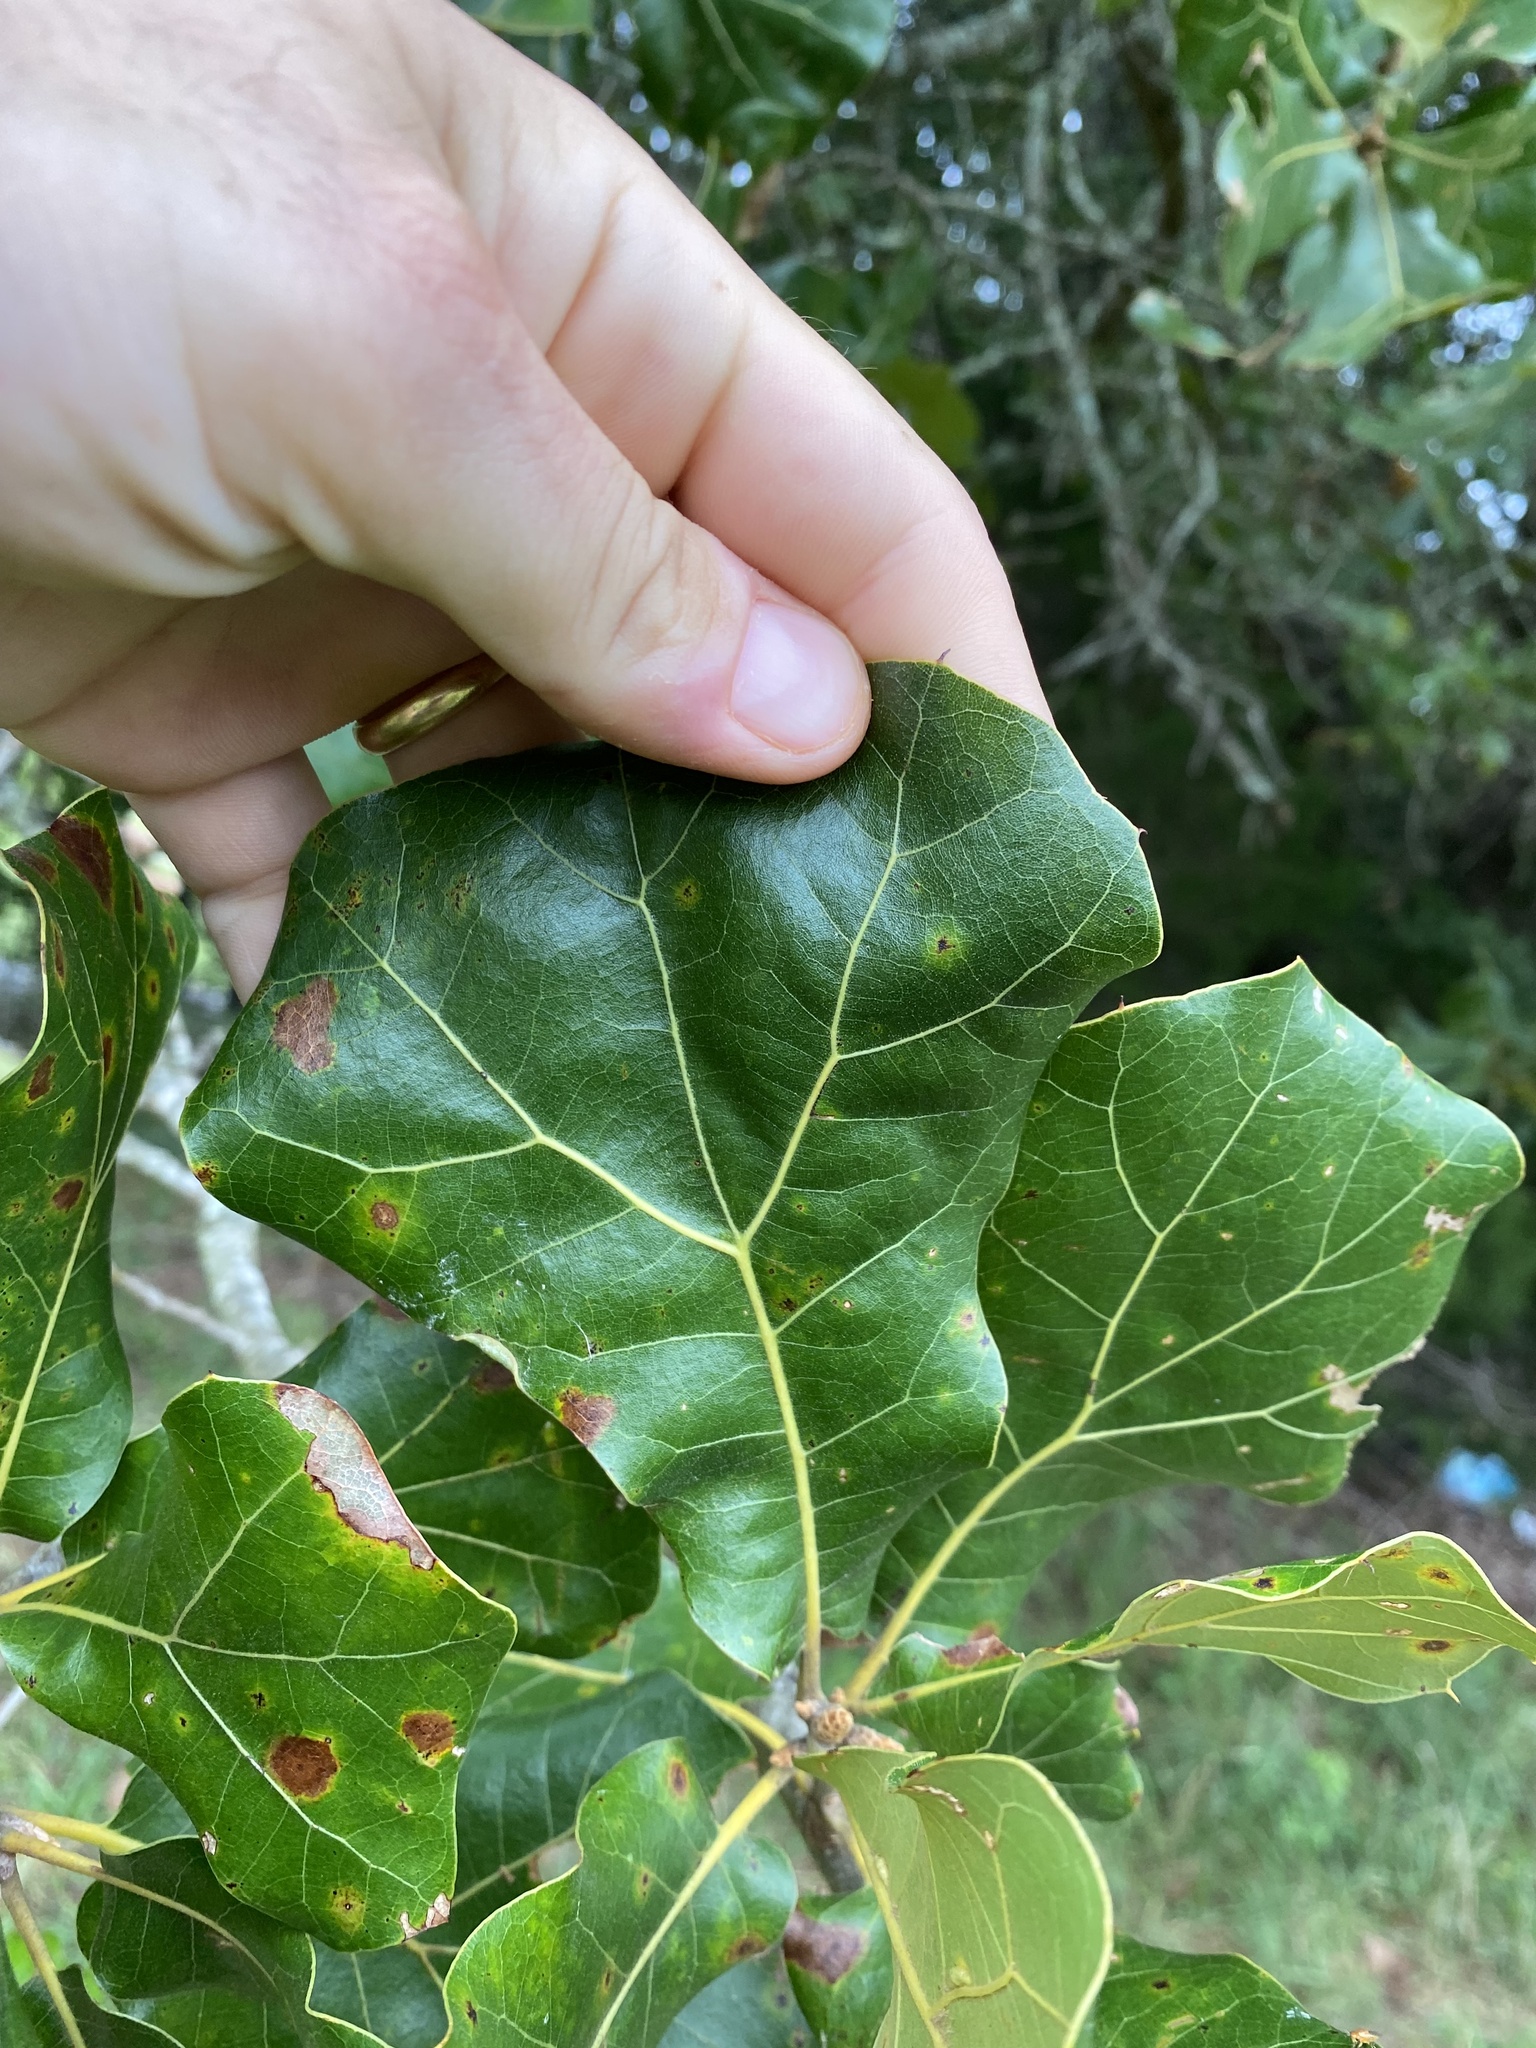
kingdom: Plantae
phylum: Tracheophyta
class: Magnoliopsida
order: Fagales
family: Fagaceae
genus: Quercus
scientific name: Quercus marilandica
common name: Blackjack oak
